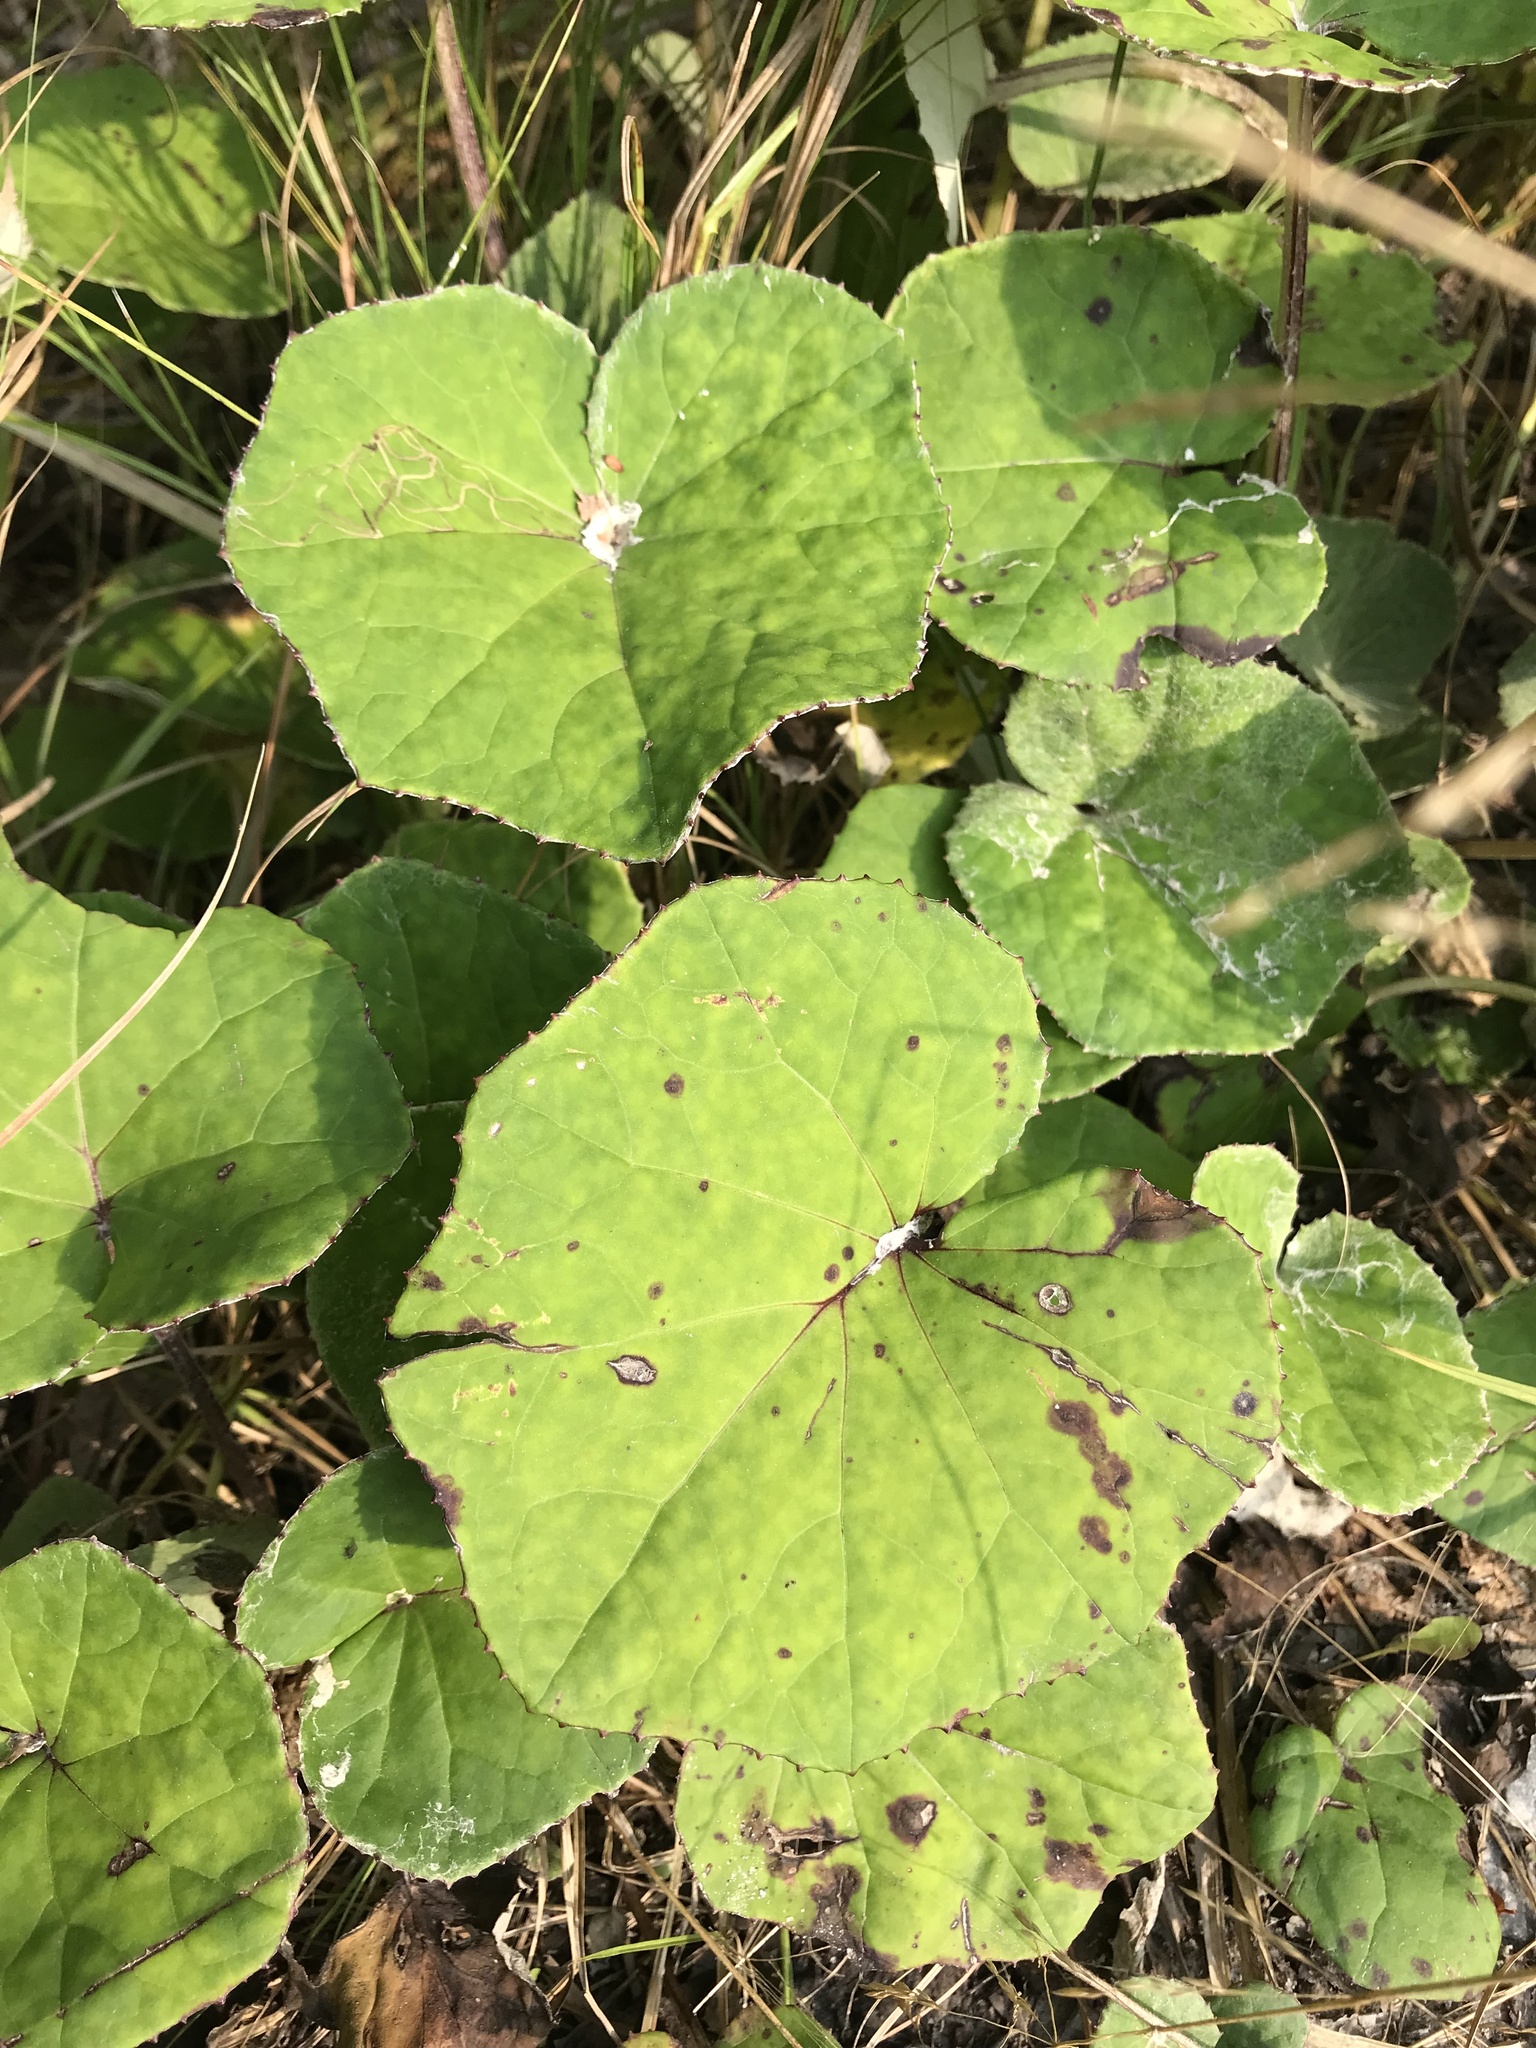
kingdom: Plantae
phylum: Tracheophyta
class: Magnoliopsida
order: Asterales
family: Asteraceae
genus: Tussilago
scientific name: Tussilago farfara
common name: Coltsfoot
